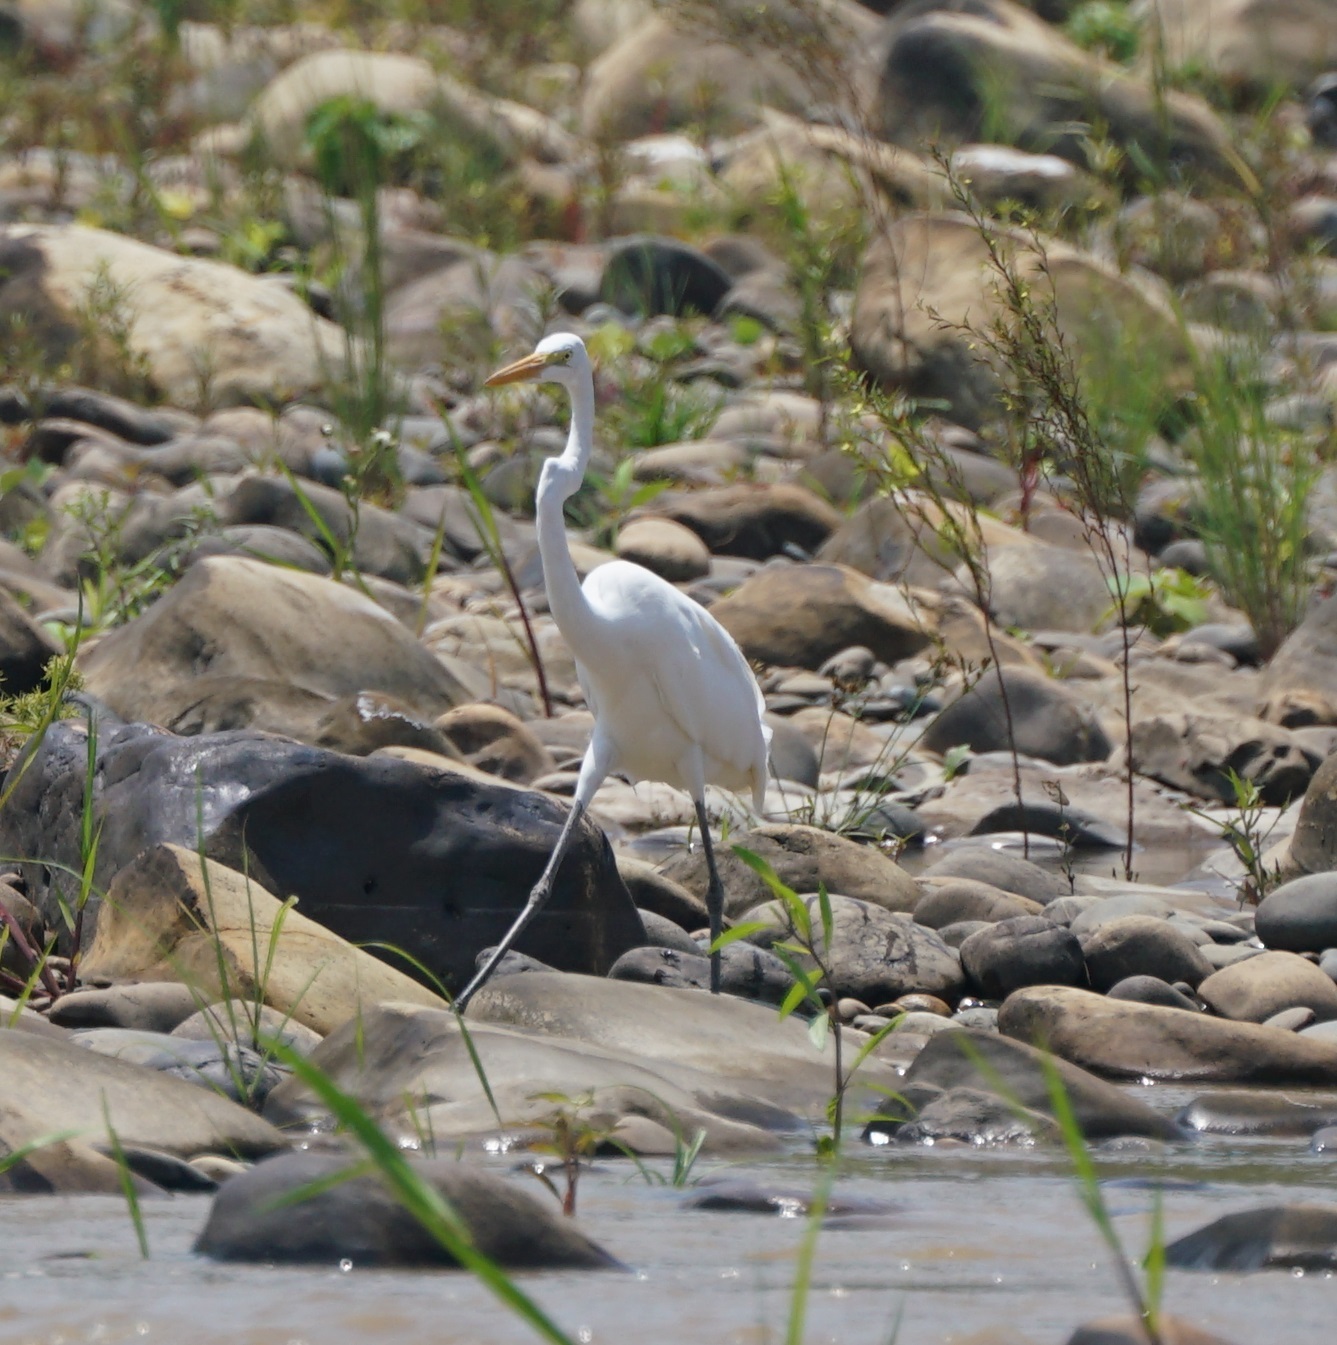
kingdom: Animalia
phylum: Chordata
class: Aves
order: Pelecaniformes
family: Ardeidae
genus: Ardea
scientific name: Ardea alba
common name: Great egret
